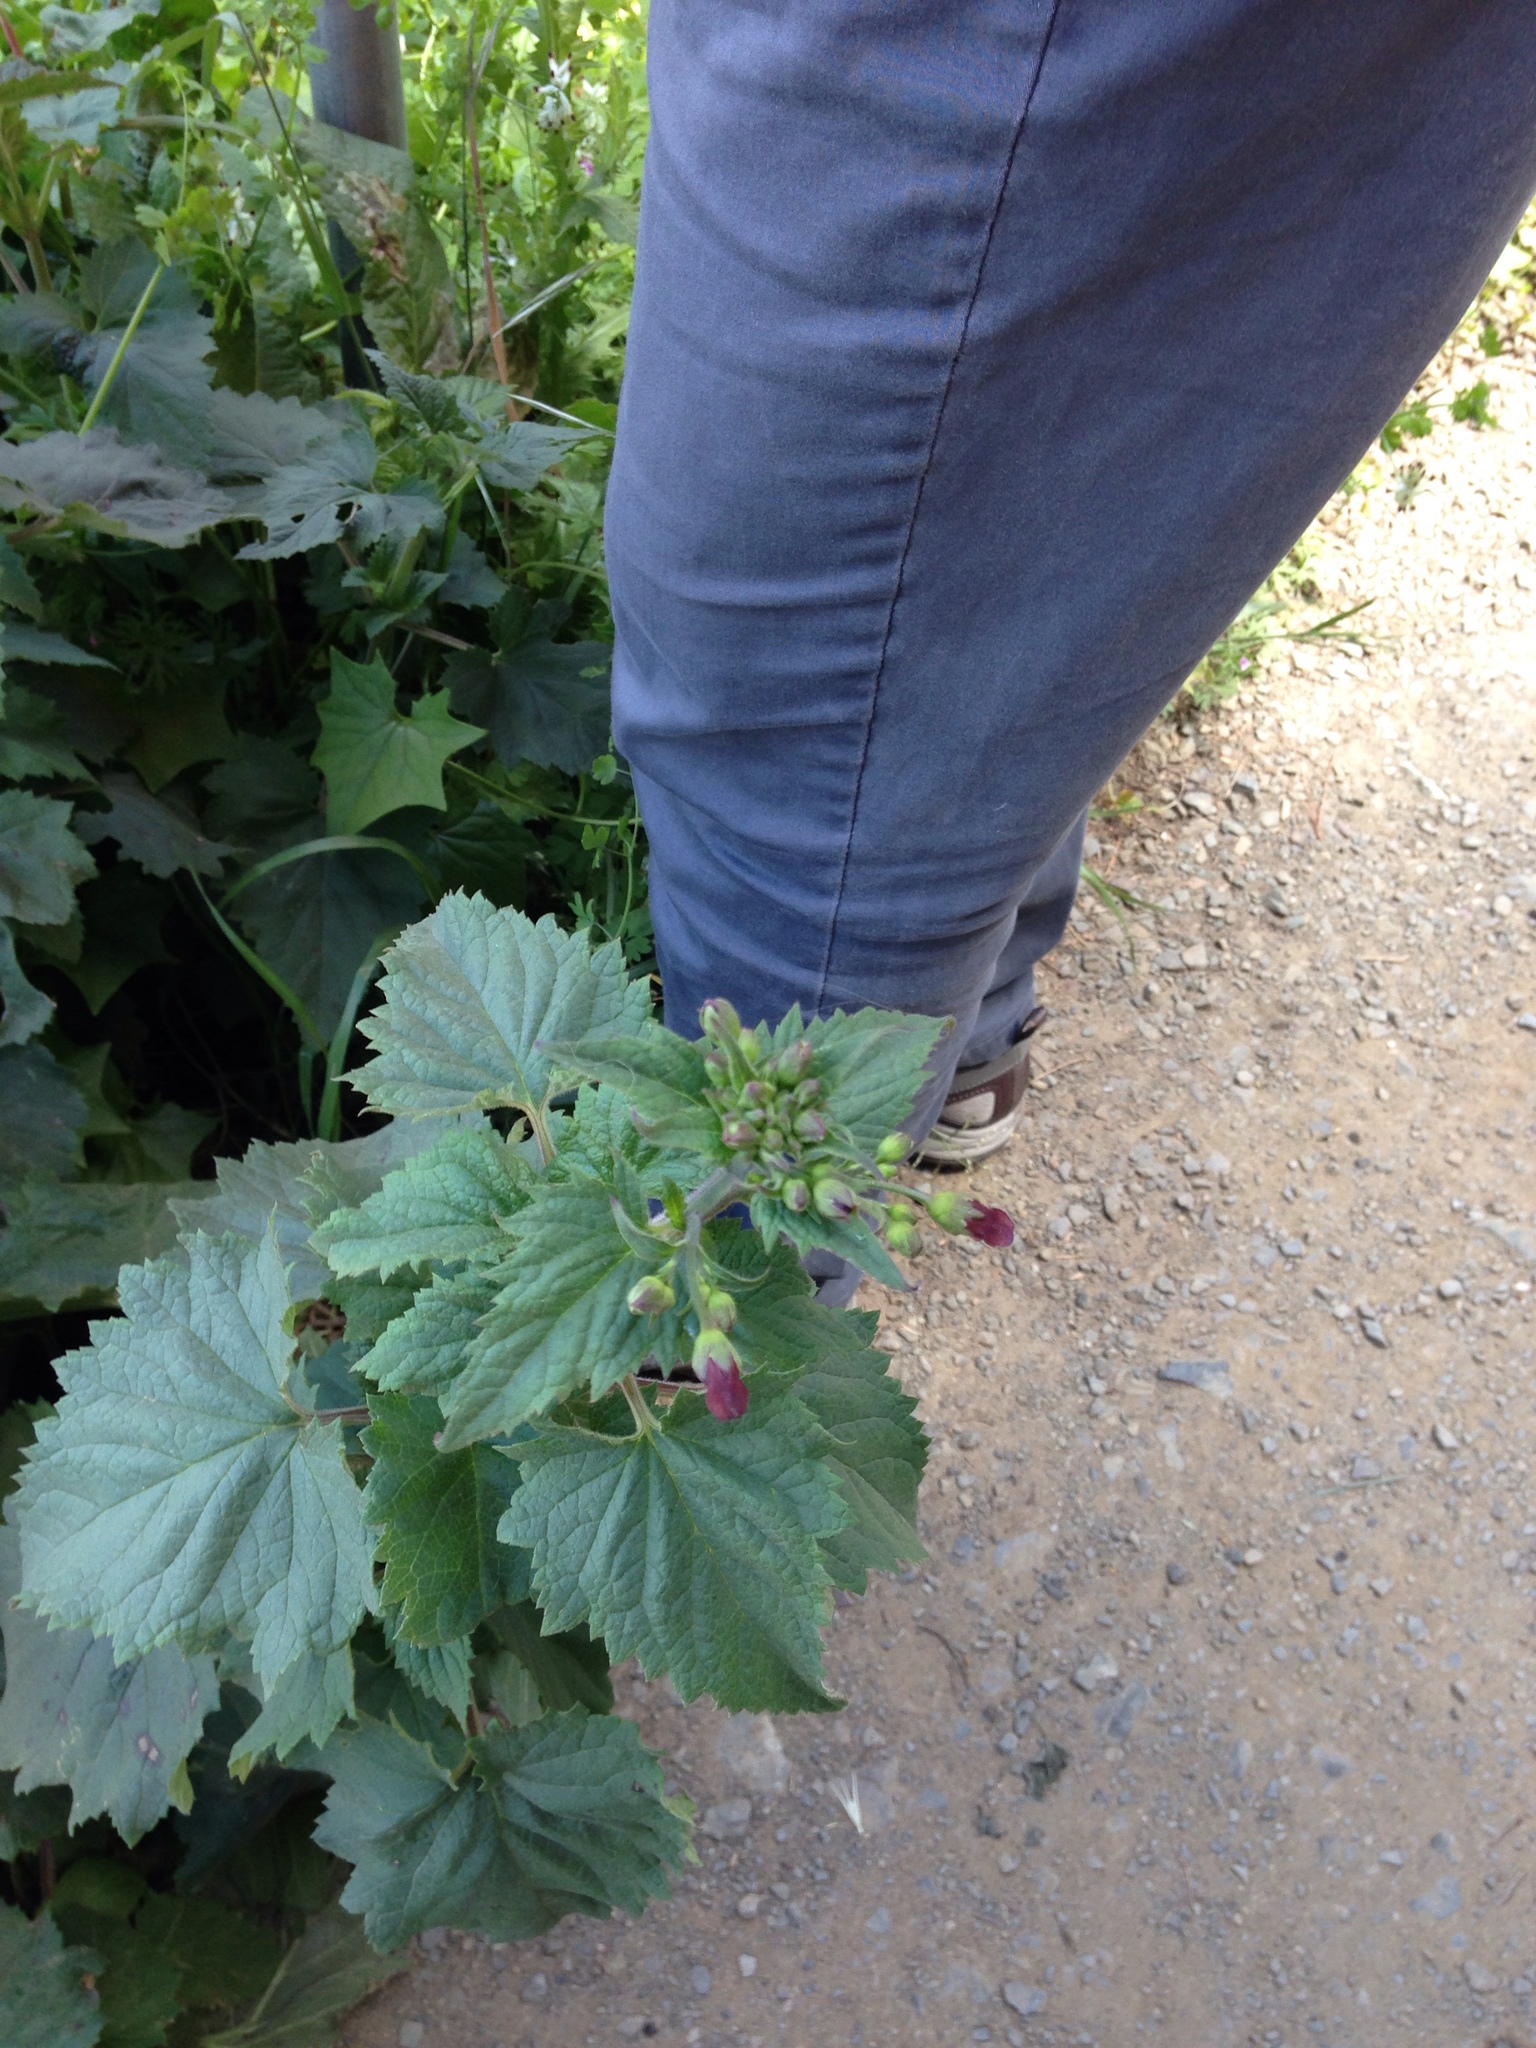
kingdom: Plantae
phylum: Tracheophyta
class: Magnoliopsida
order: Lamiales
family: Scrophulariaceae
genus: Scrophularia
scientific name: Scrophularia californica
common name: California figwort
